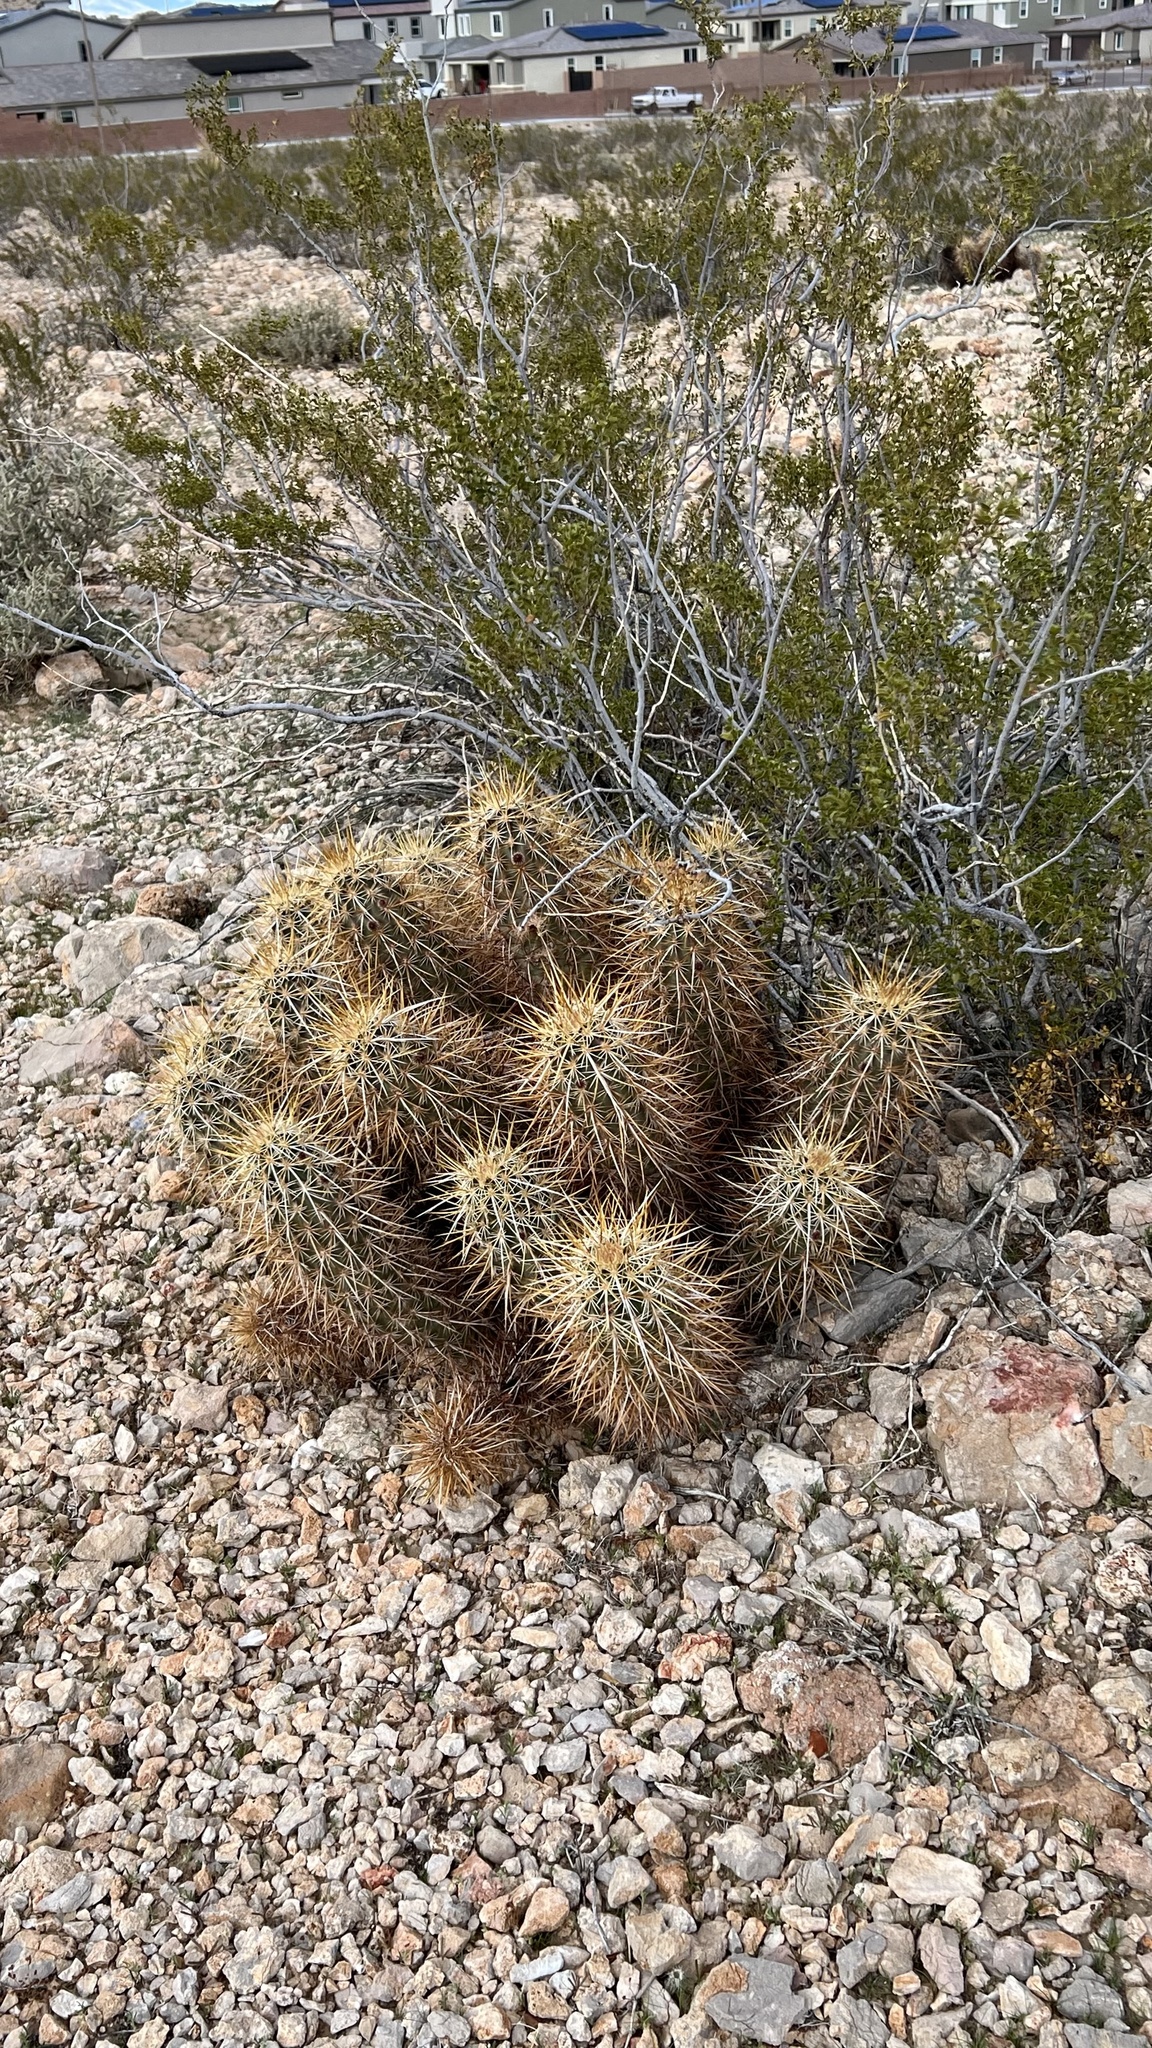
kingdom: Plantae
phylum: Tracheophyta
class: Magnoliopsida
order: Caryophyllales
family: Cactaceae
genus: Echinocereus
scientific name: Echinocereus engelmannii
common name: Engelmann's hedgehog cactus
